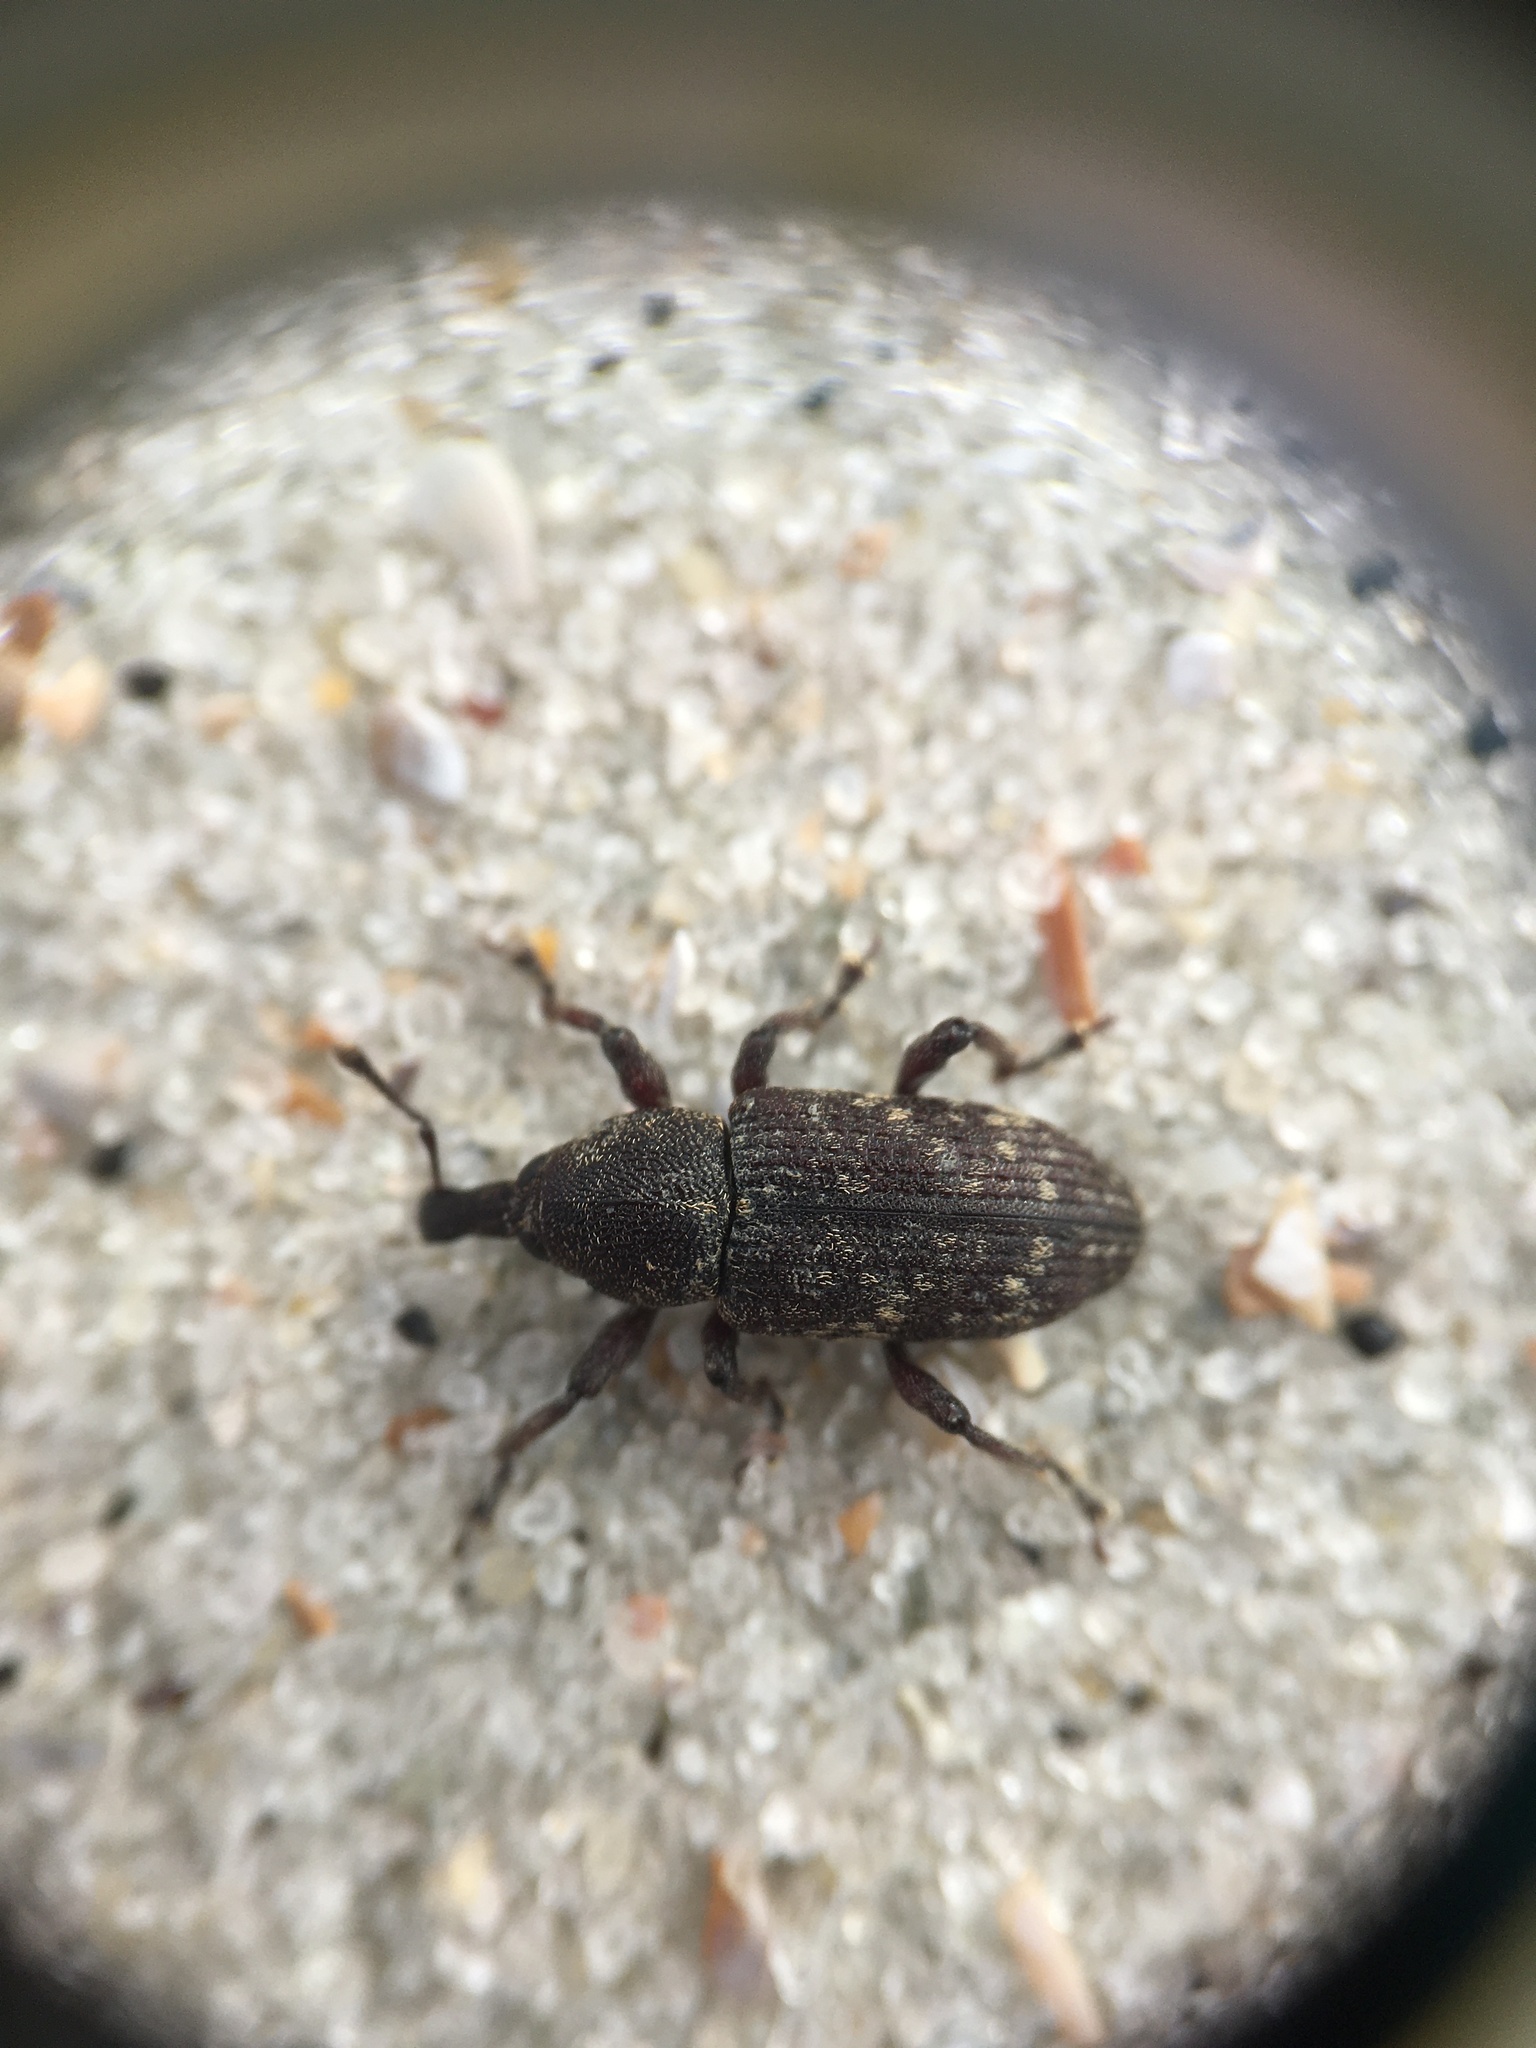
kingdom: Animalia
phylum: Arthropoda
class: Insecta
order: Coleoptera
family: Curculionidae
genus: Hylobius
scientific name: Hylobius aliradicis
